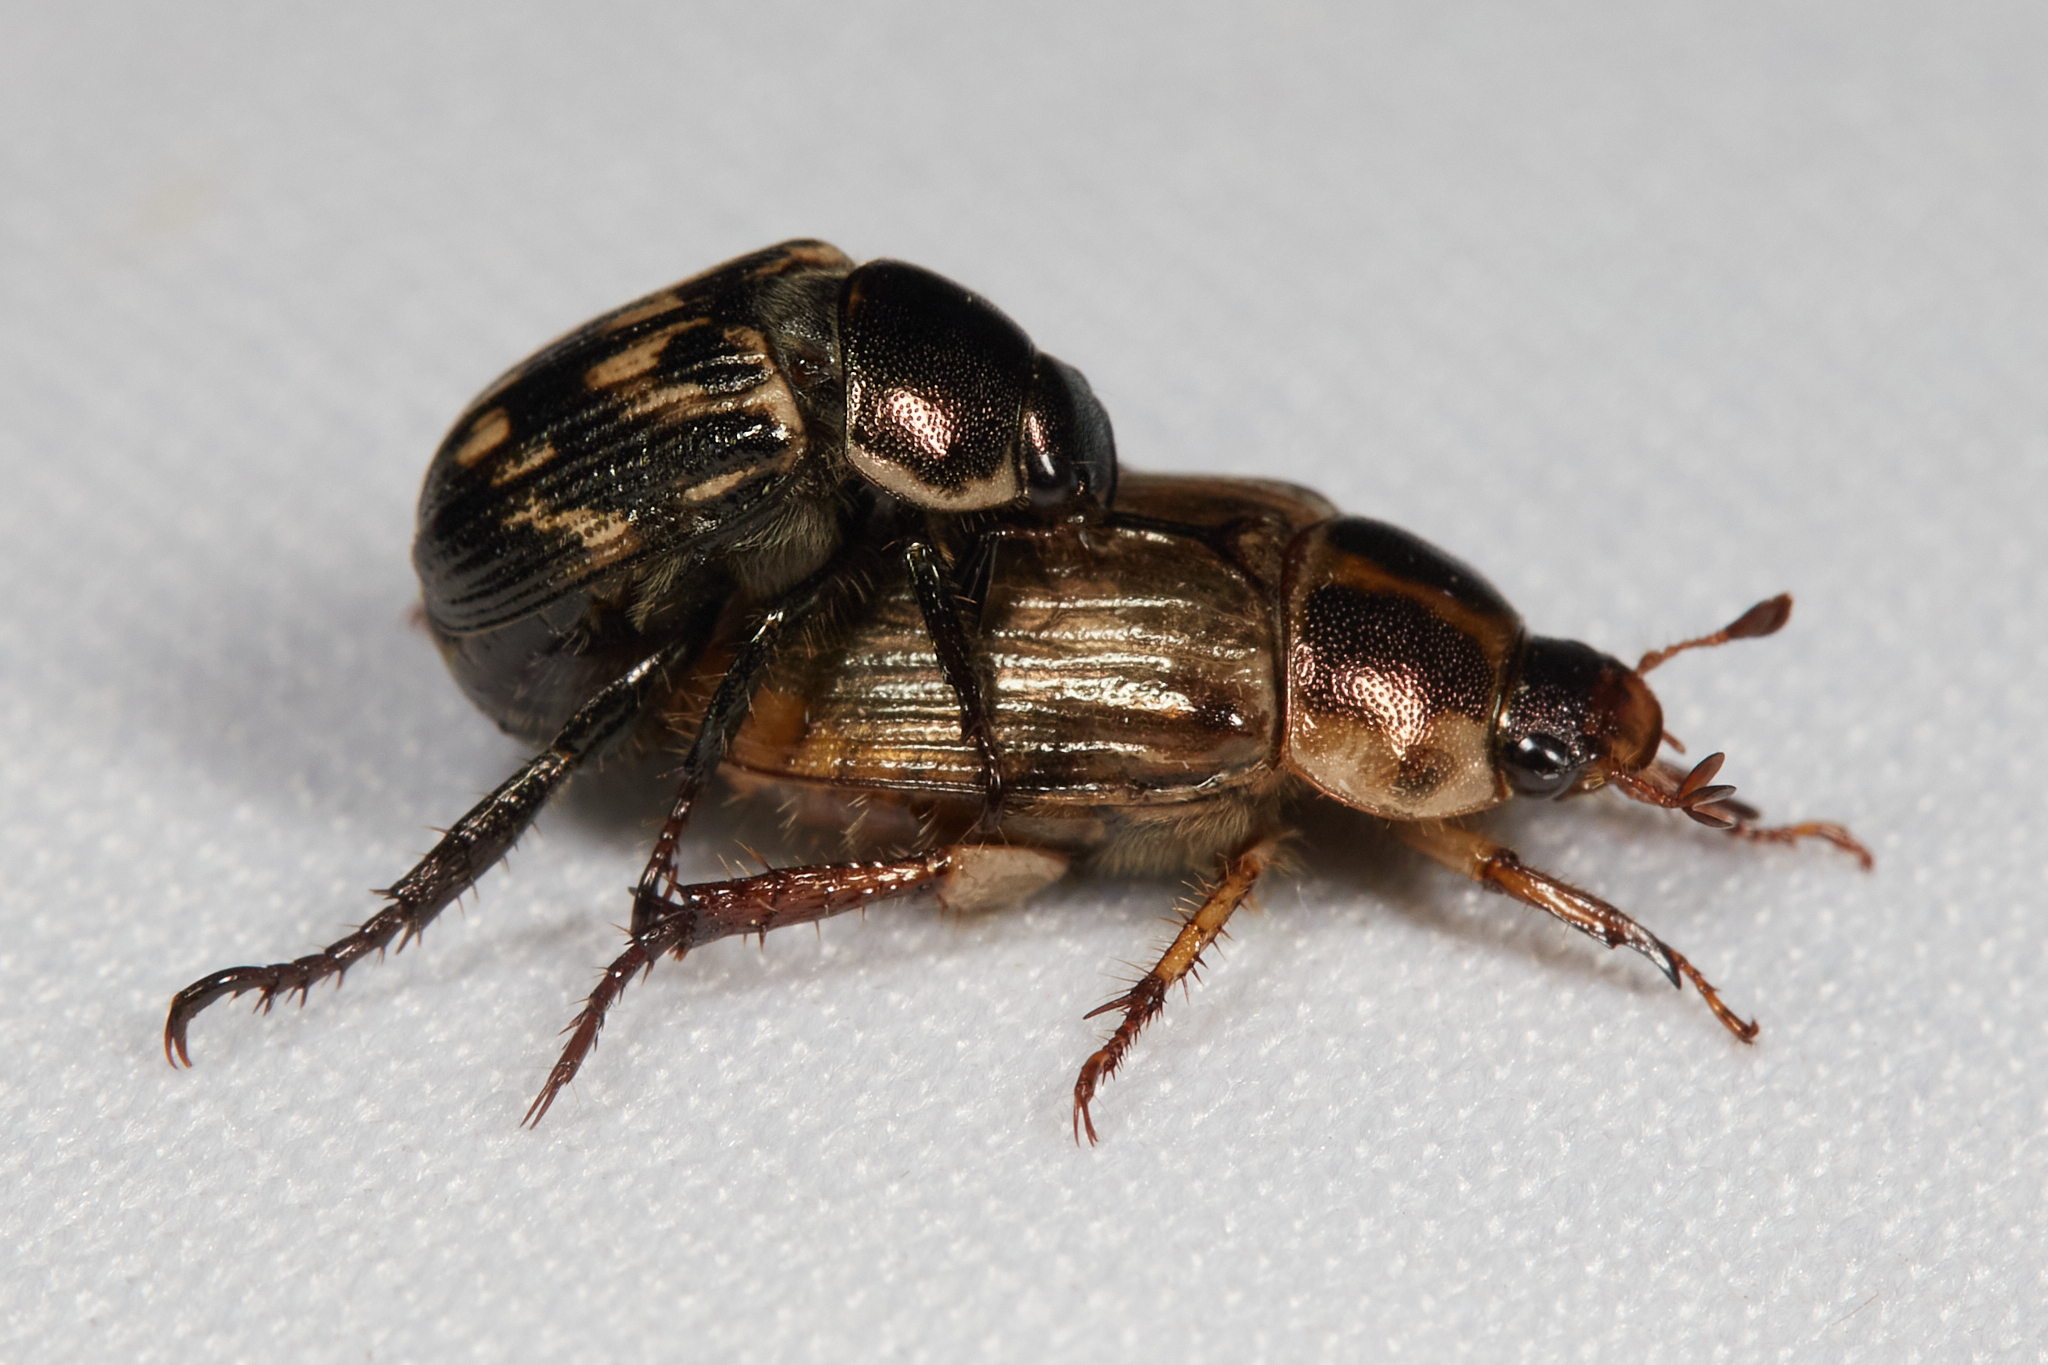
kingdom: Animalia
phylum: Arthropoda
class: Insecta
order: Coleoptera
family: Scarabaeidae
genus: Exomala
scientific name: Exomala orientalis
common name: Oriental beetle
